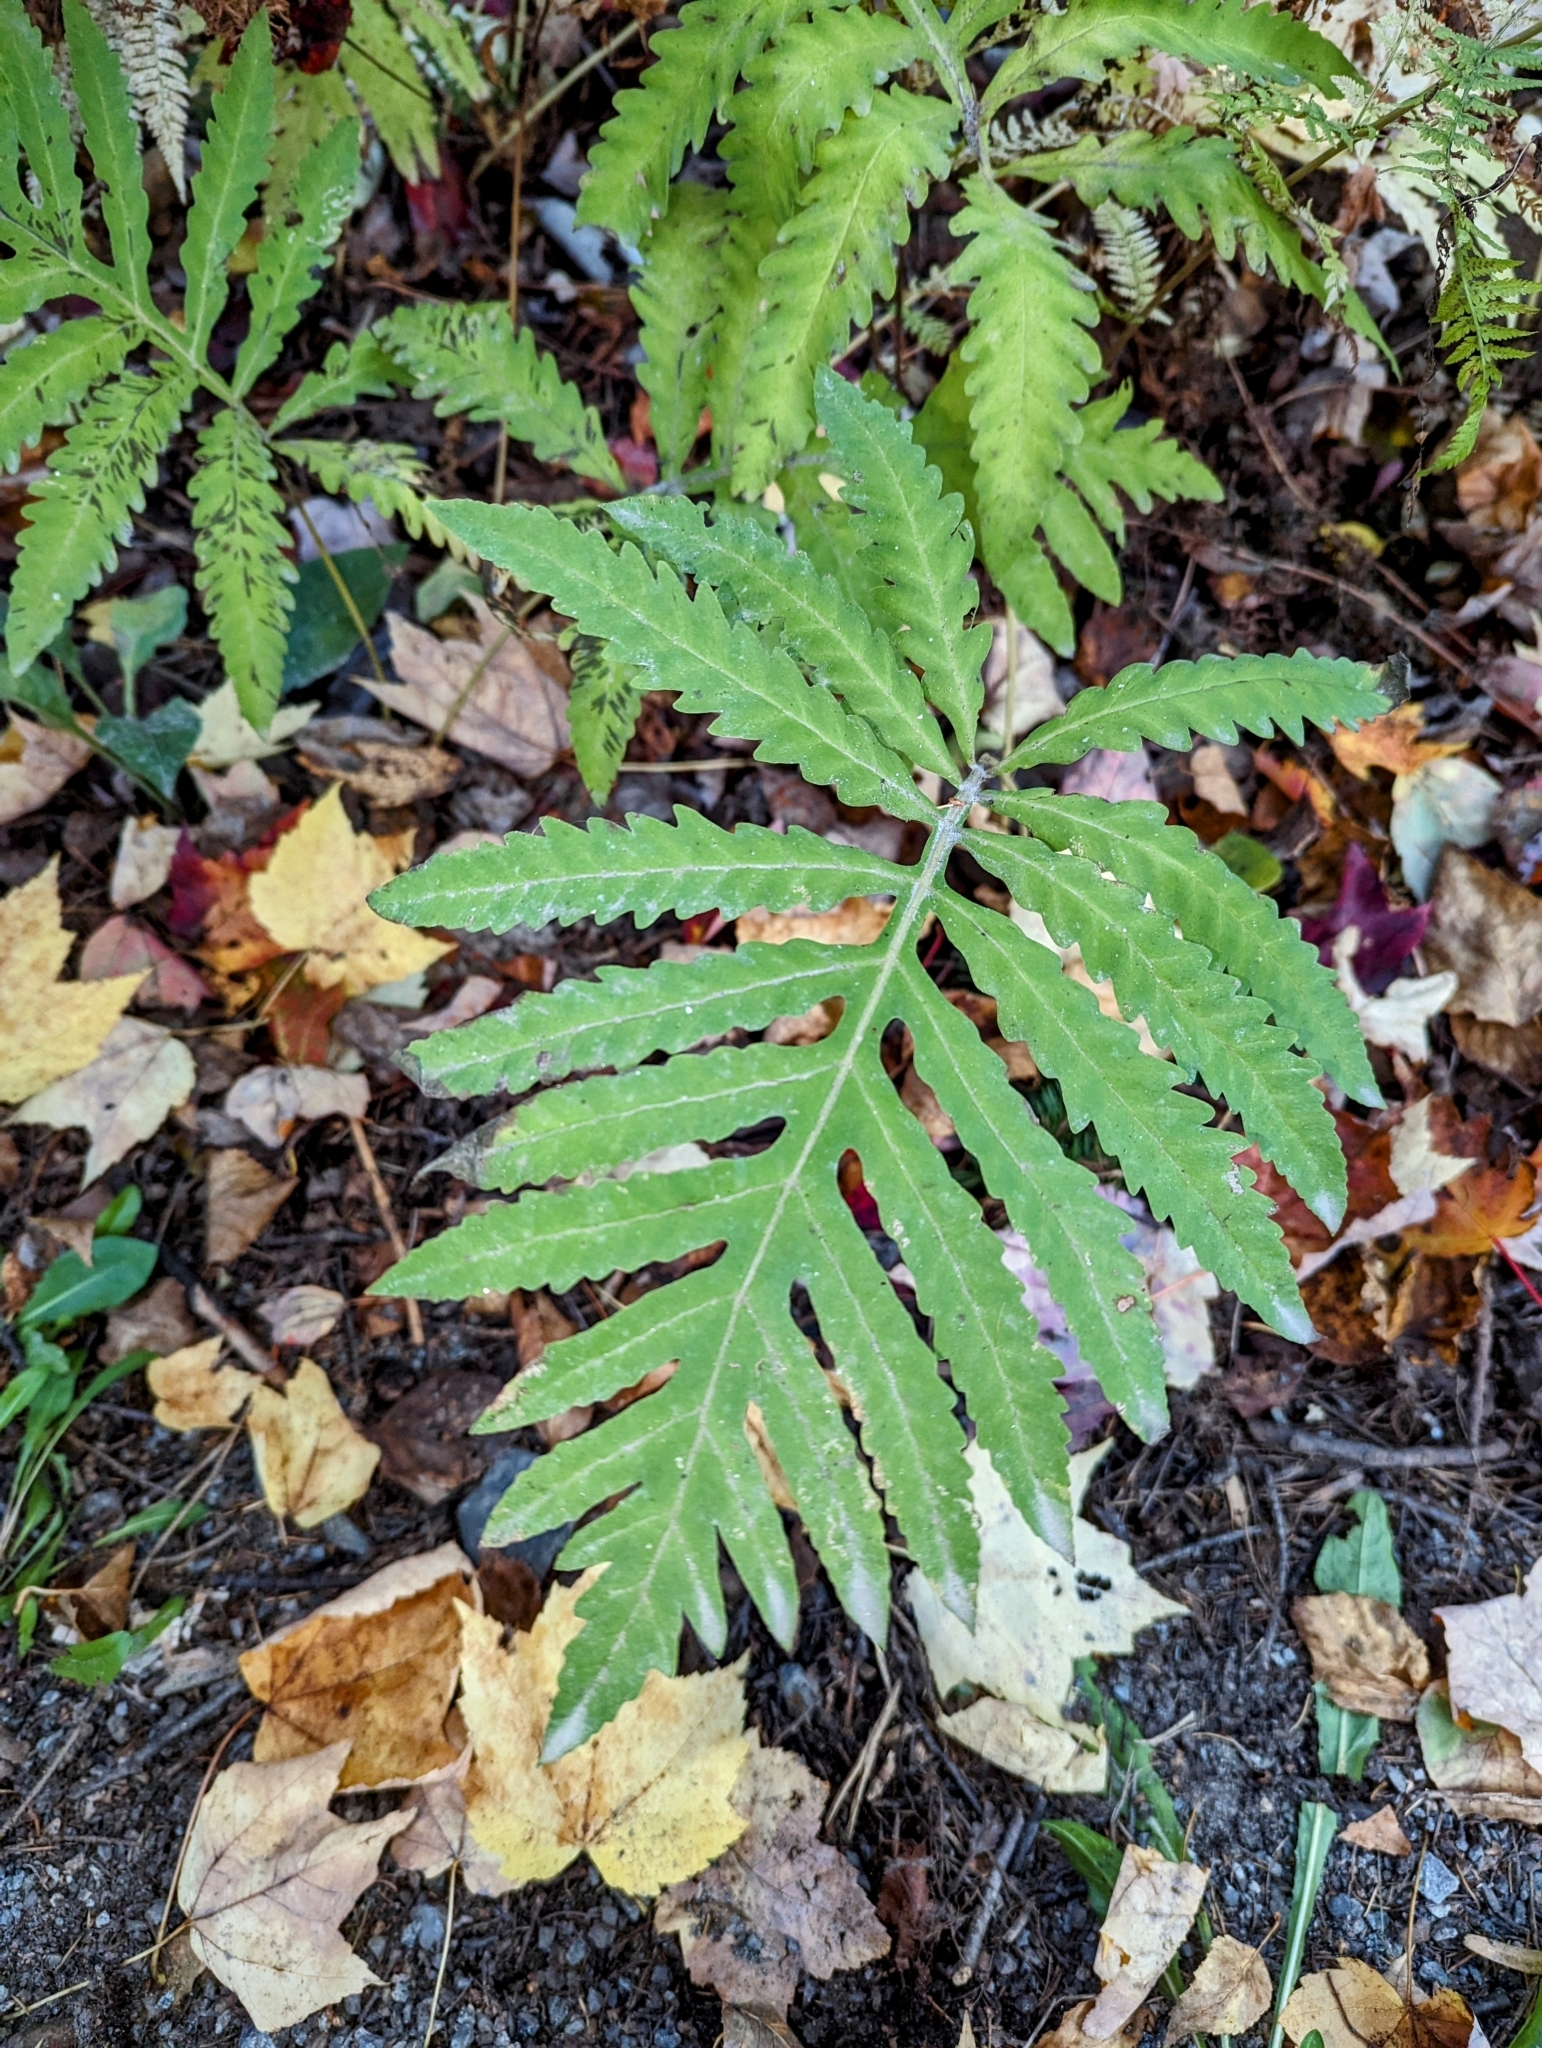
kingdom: Plantae
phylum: Tracheophyta
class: Polypodiopsida
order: Polypodiales
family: Onocleaceae
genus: Onoclea
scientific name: Onoclea sensibilis
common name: Sensitive fern
